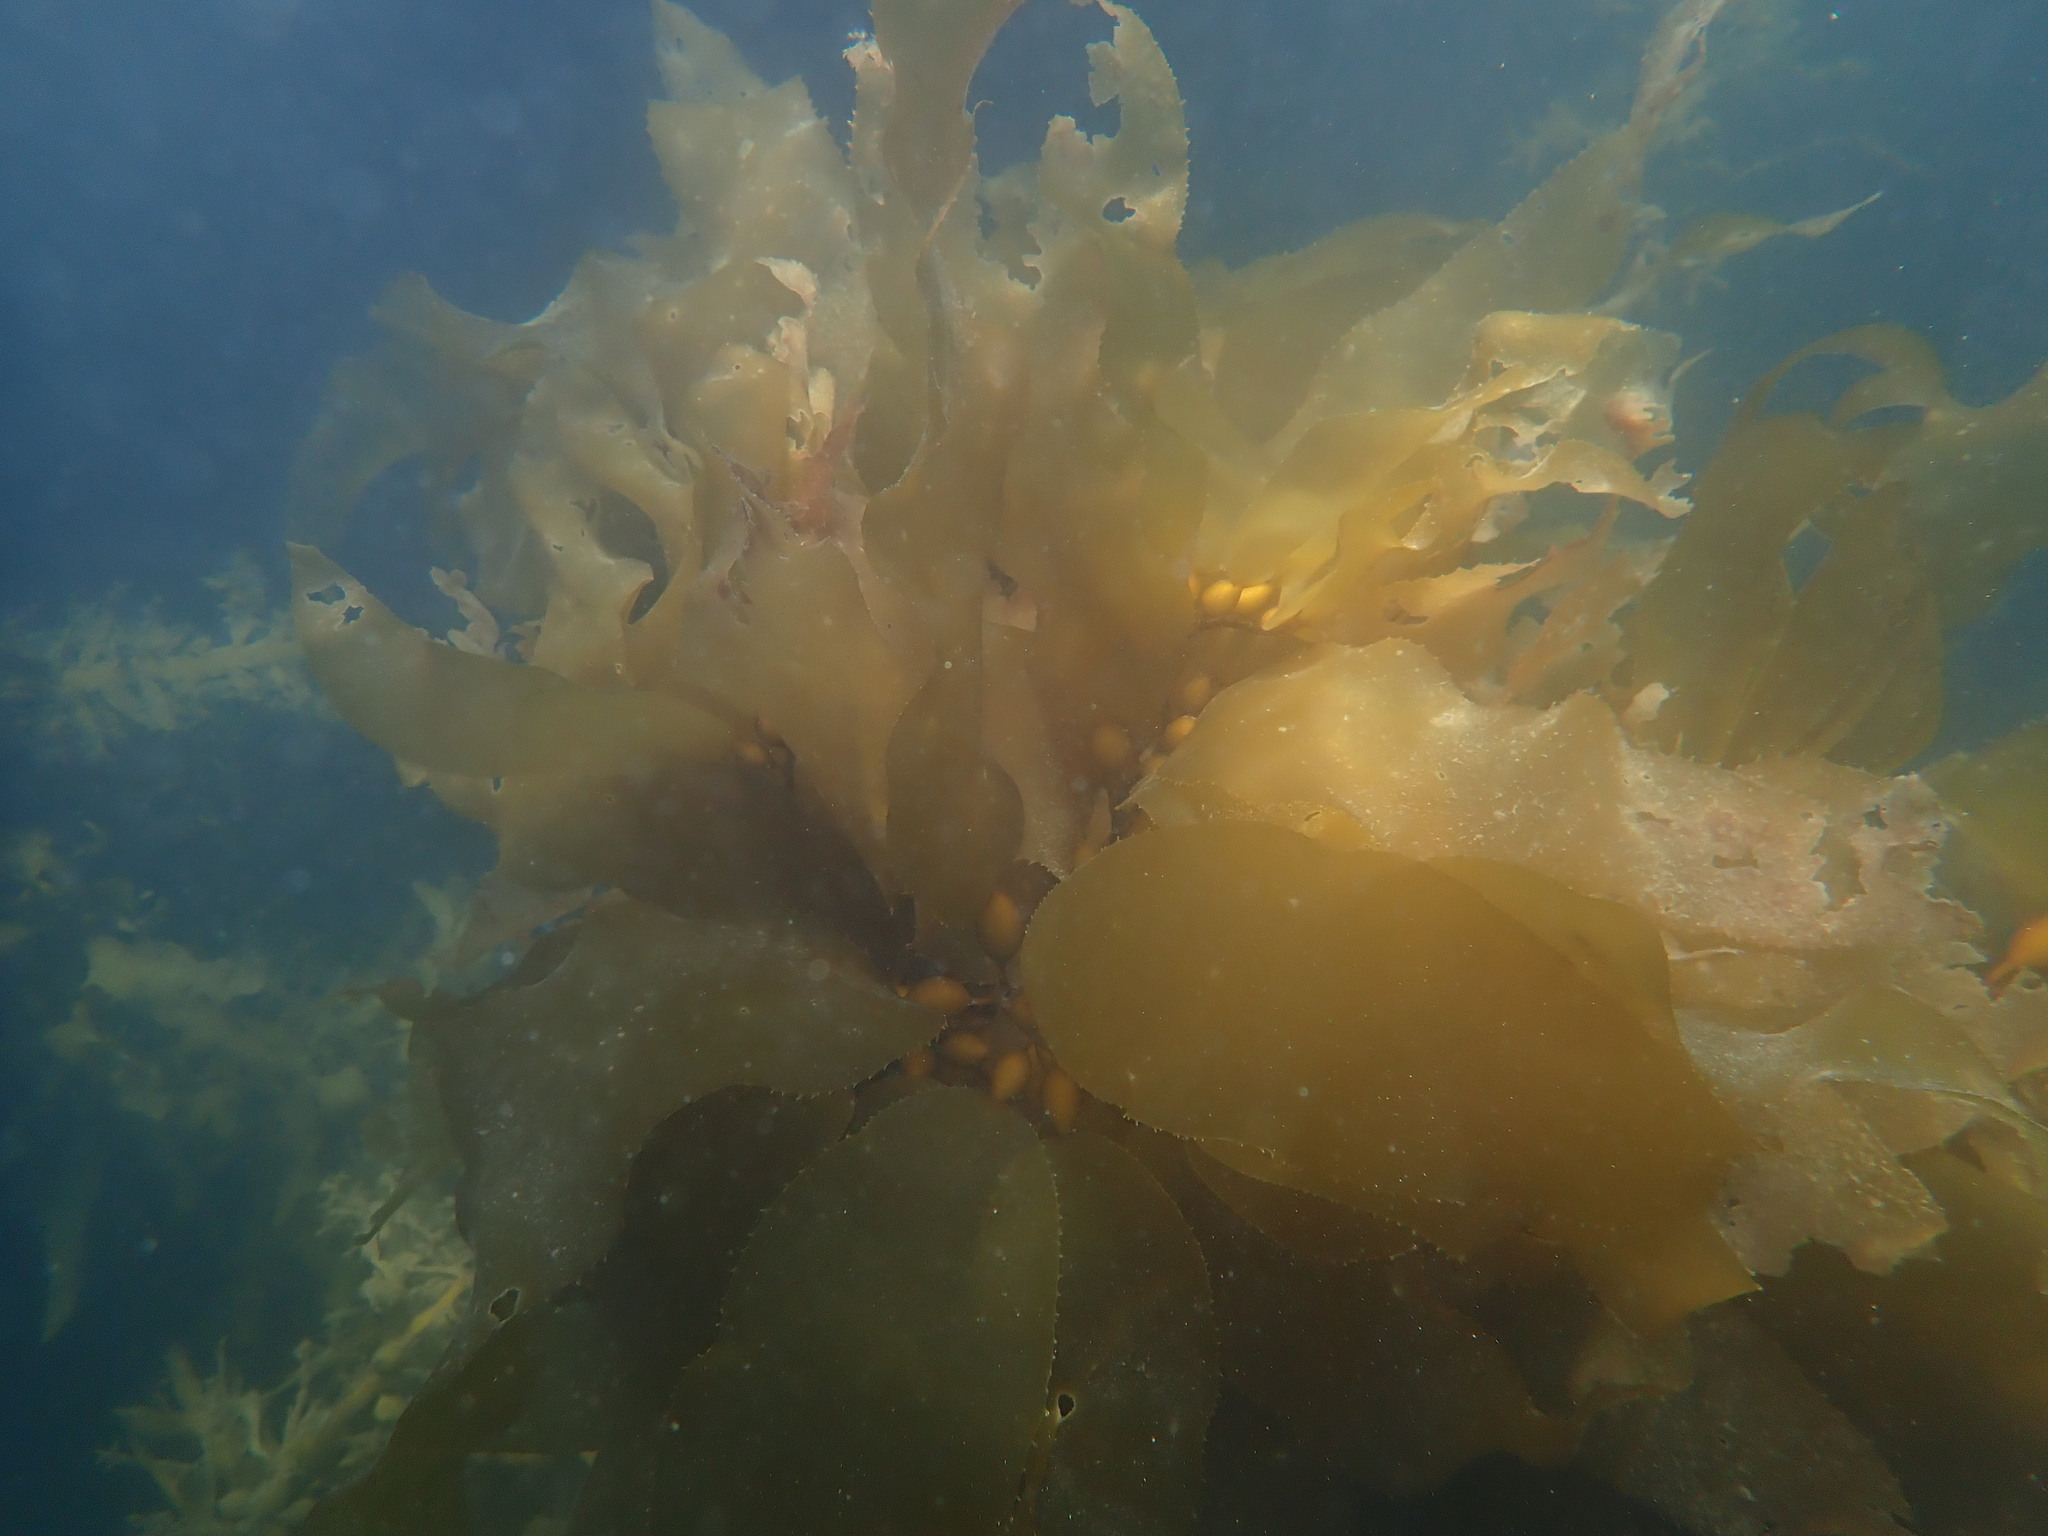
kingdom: Chromista
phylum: Ochrophyta
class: Phaeophyceae
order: Laminariales
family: Laminariaceae
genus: Macrocystis
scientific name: Macrocystis pyrifera
